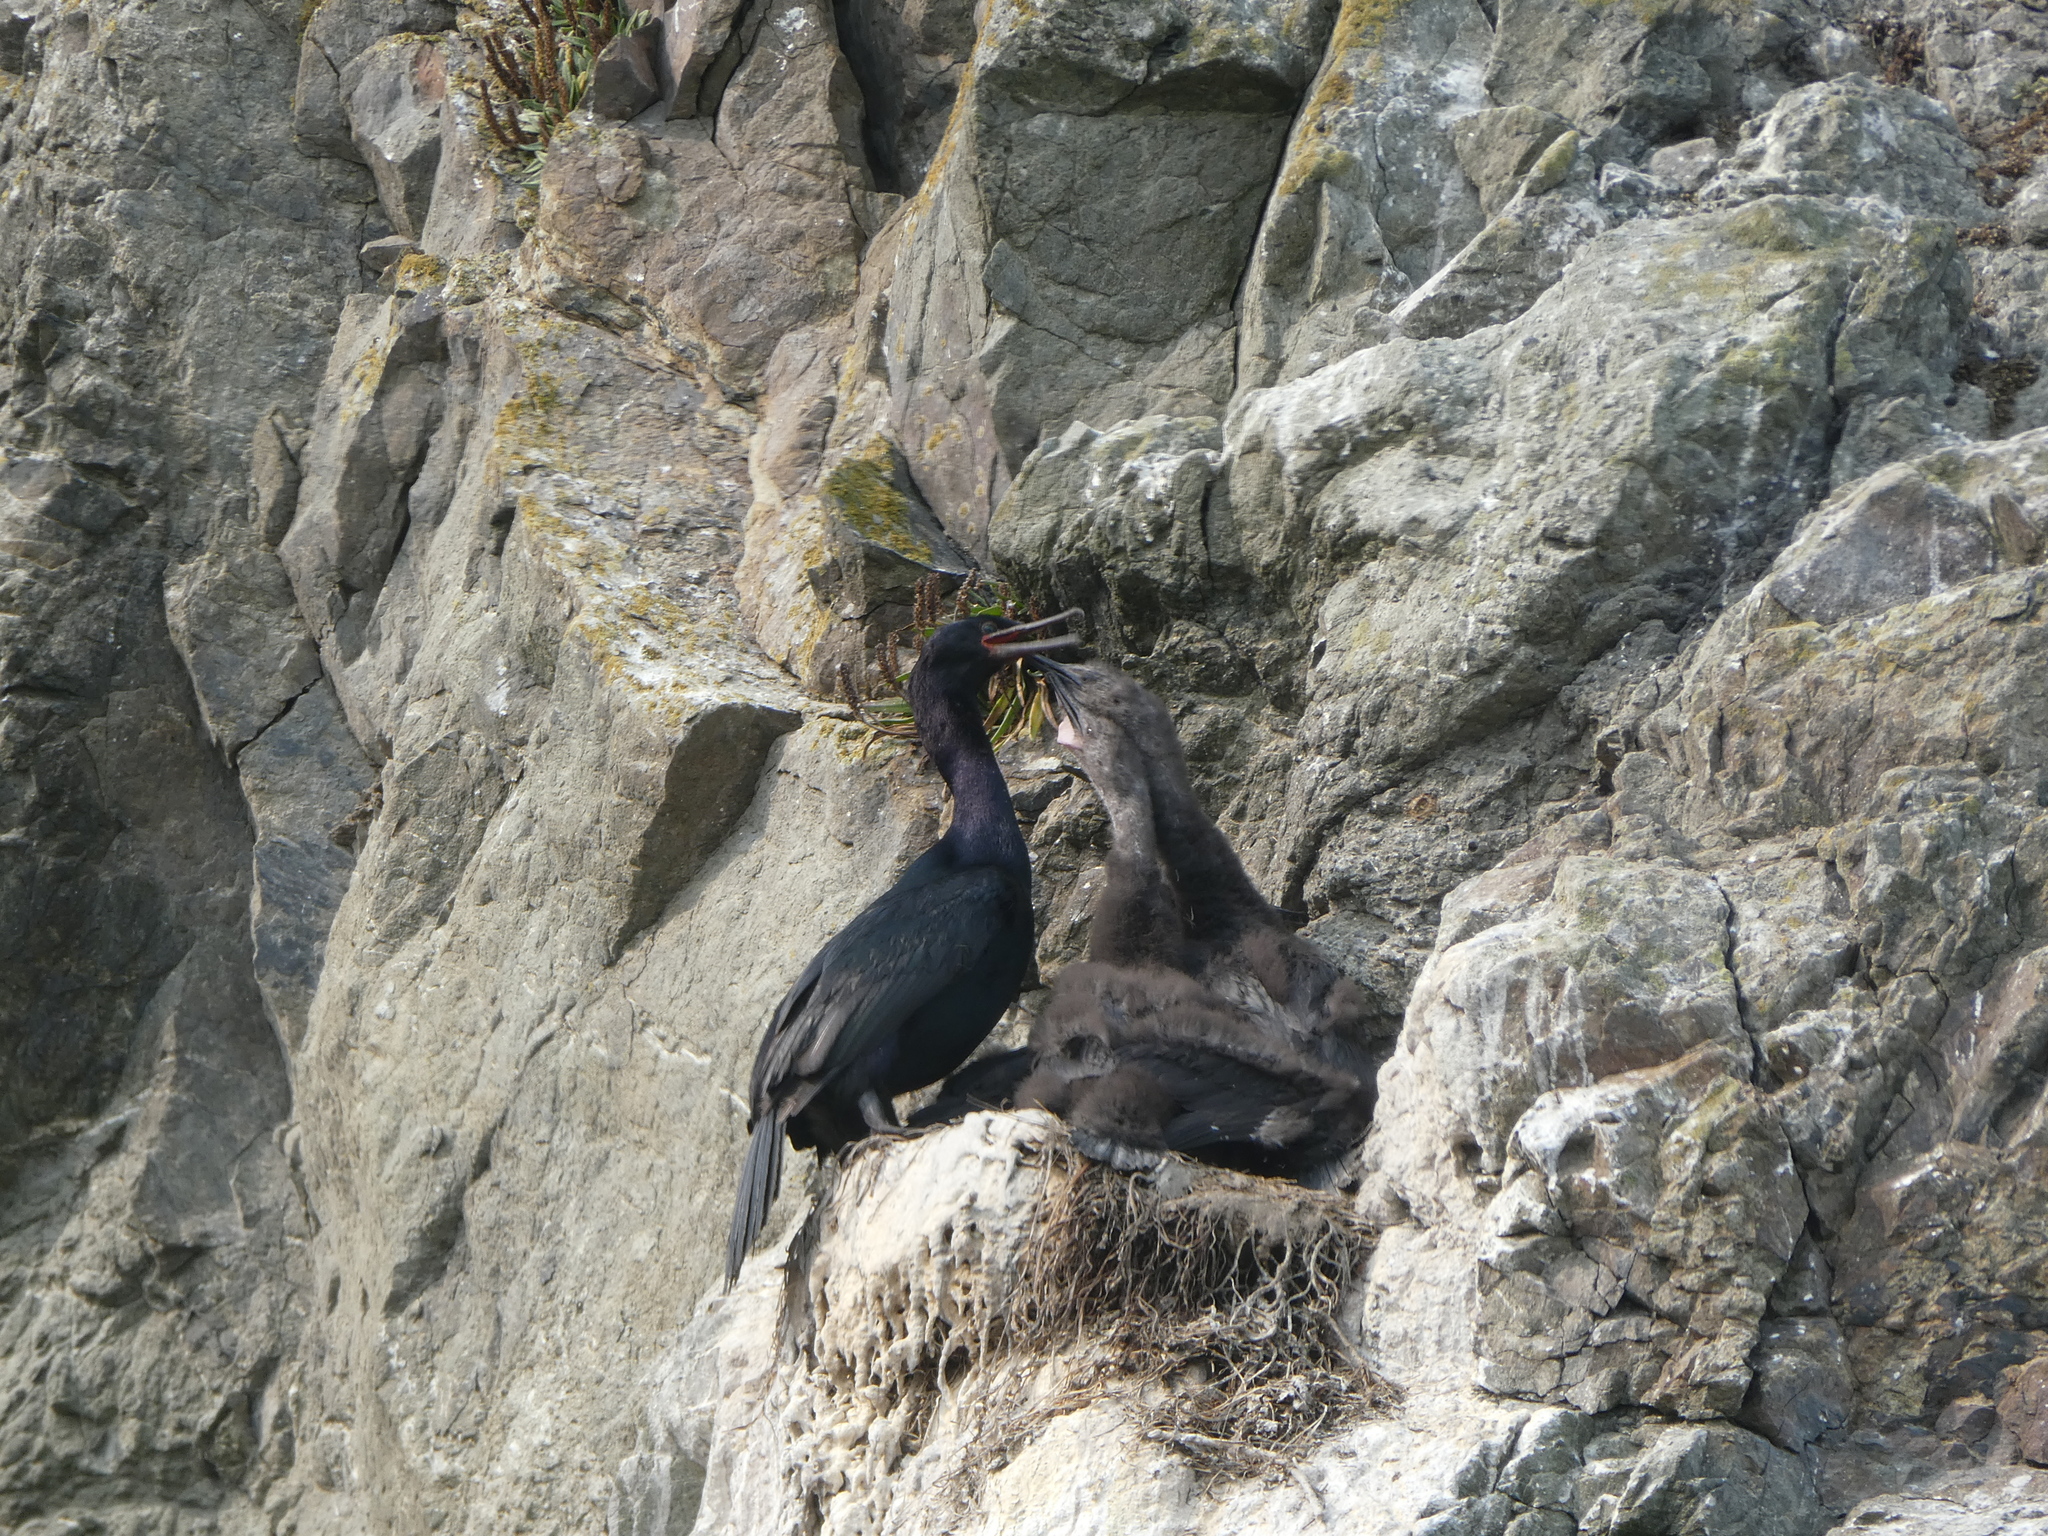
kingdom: Animalia
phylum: Chordata
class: Aves
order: Suliformes
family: Phalacrocoracidae
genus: Phalacrocorax
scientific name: Phalacrocorax pelagicus
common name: Pelagic cormorant
